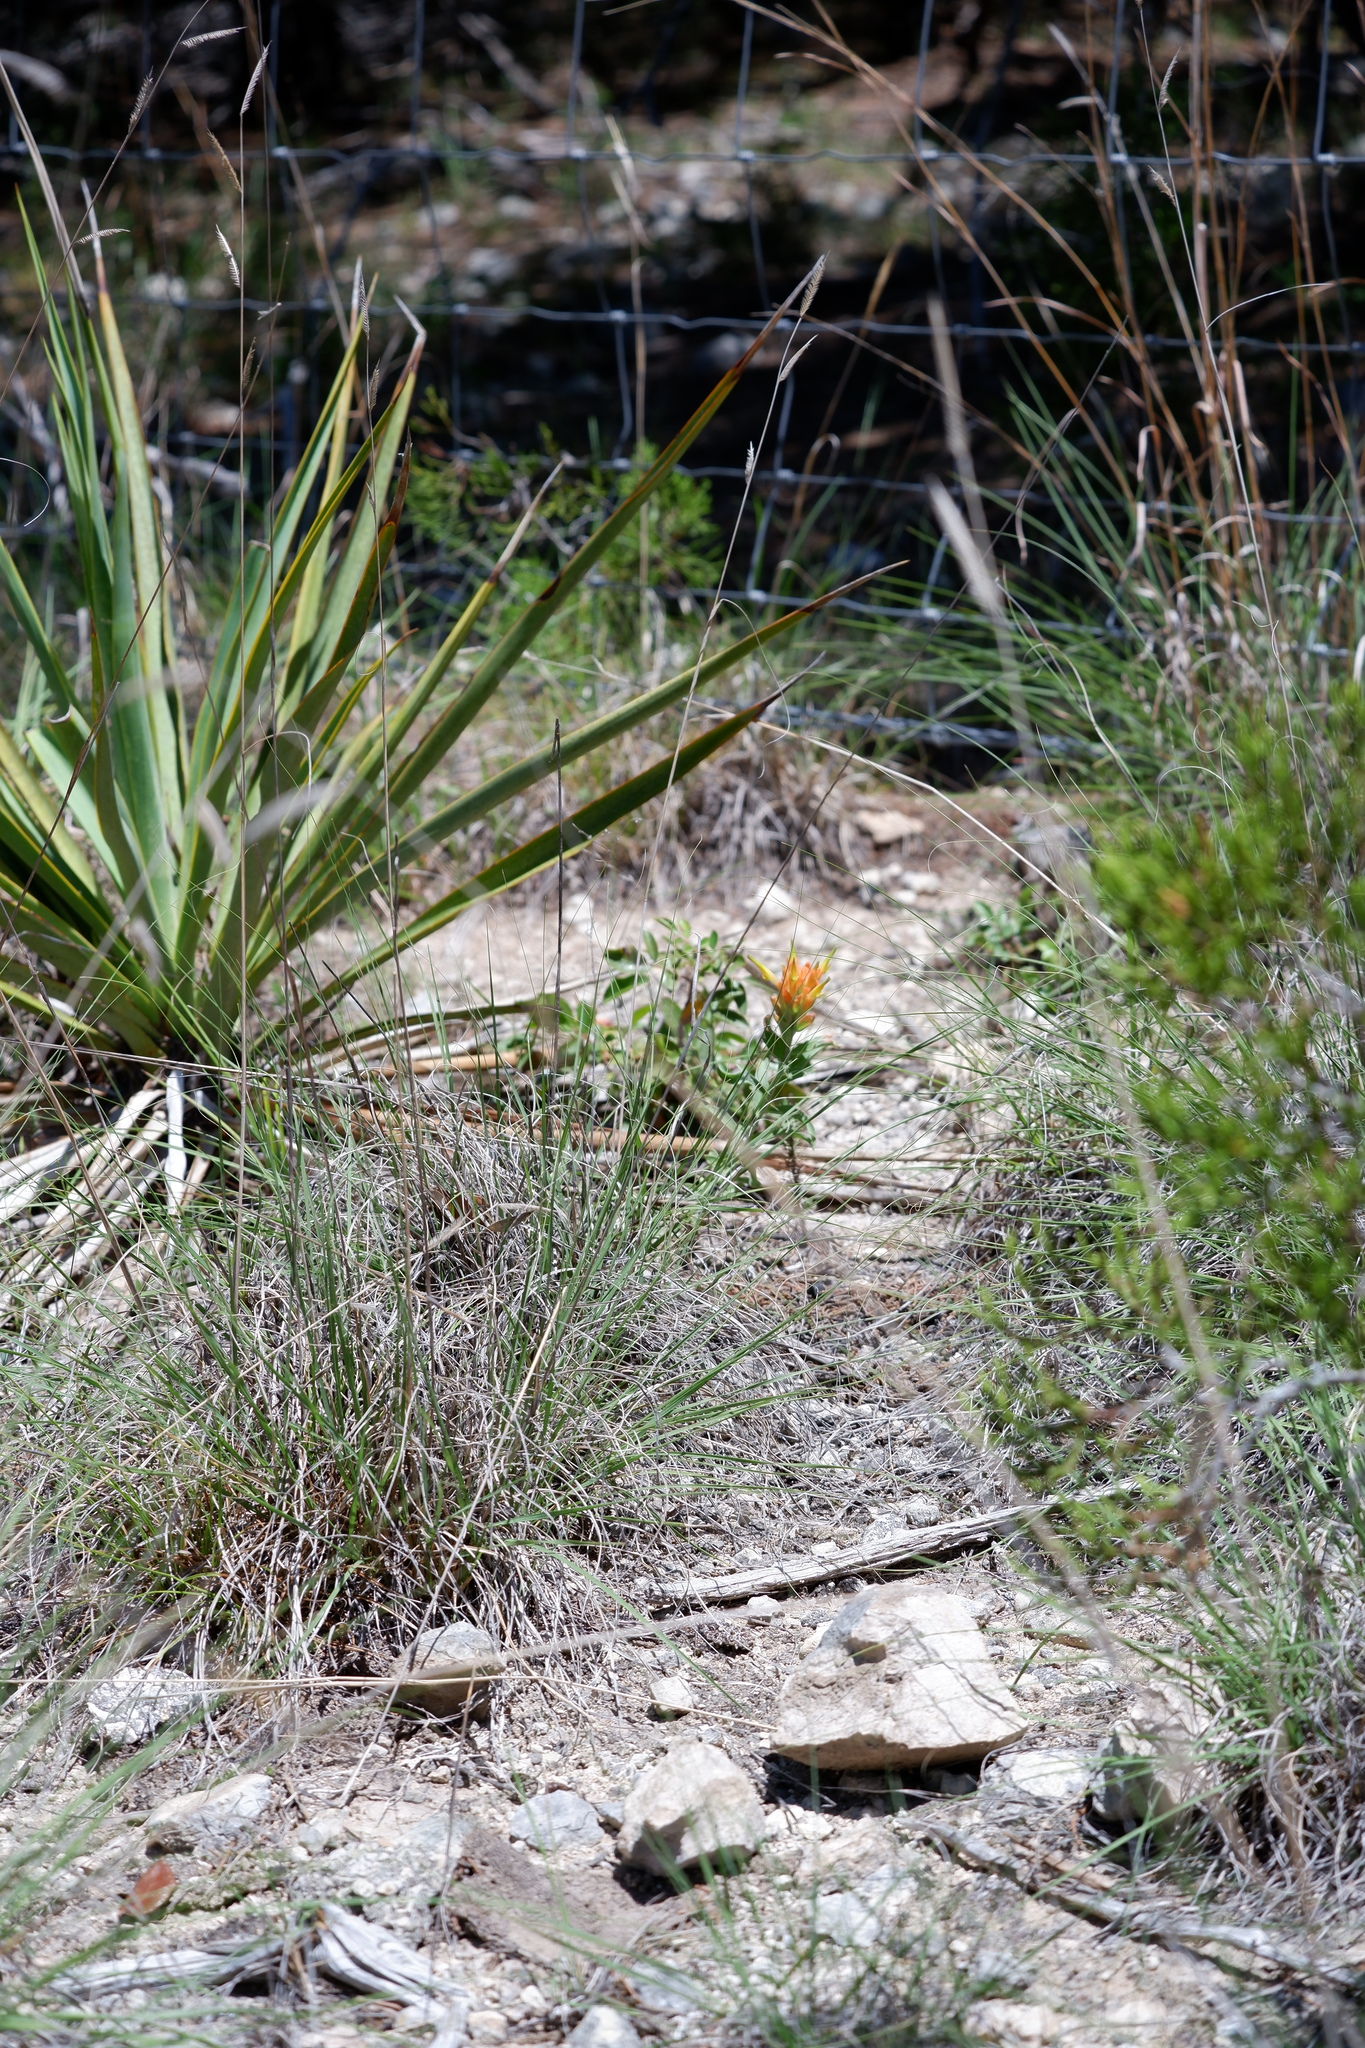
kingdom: Plantae
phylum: Tracheophyta
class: Magnoliopsida
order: Lamiales
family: Orobanchaceae
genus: Castilleja
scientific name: Castilleja lindheimeri
